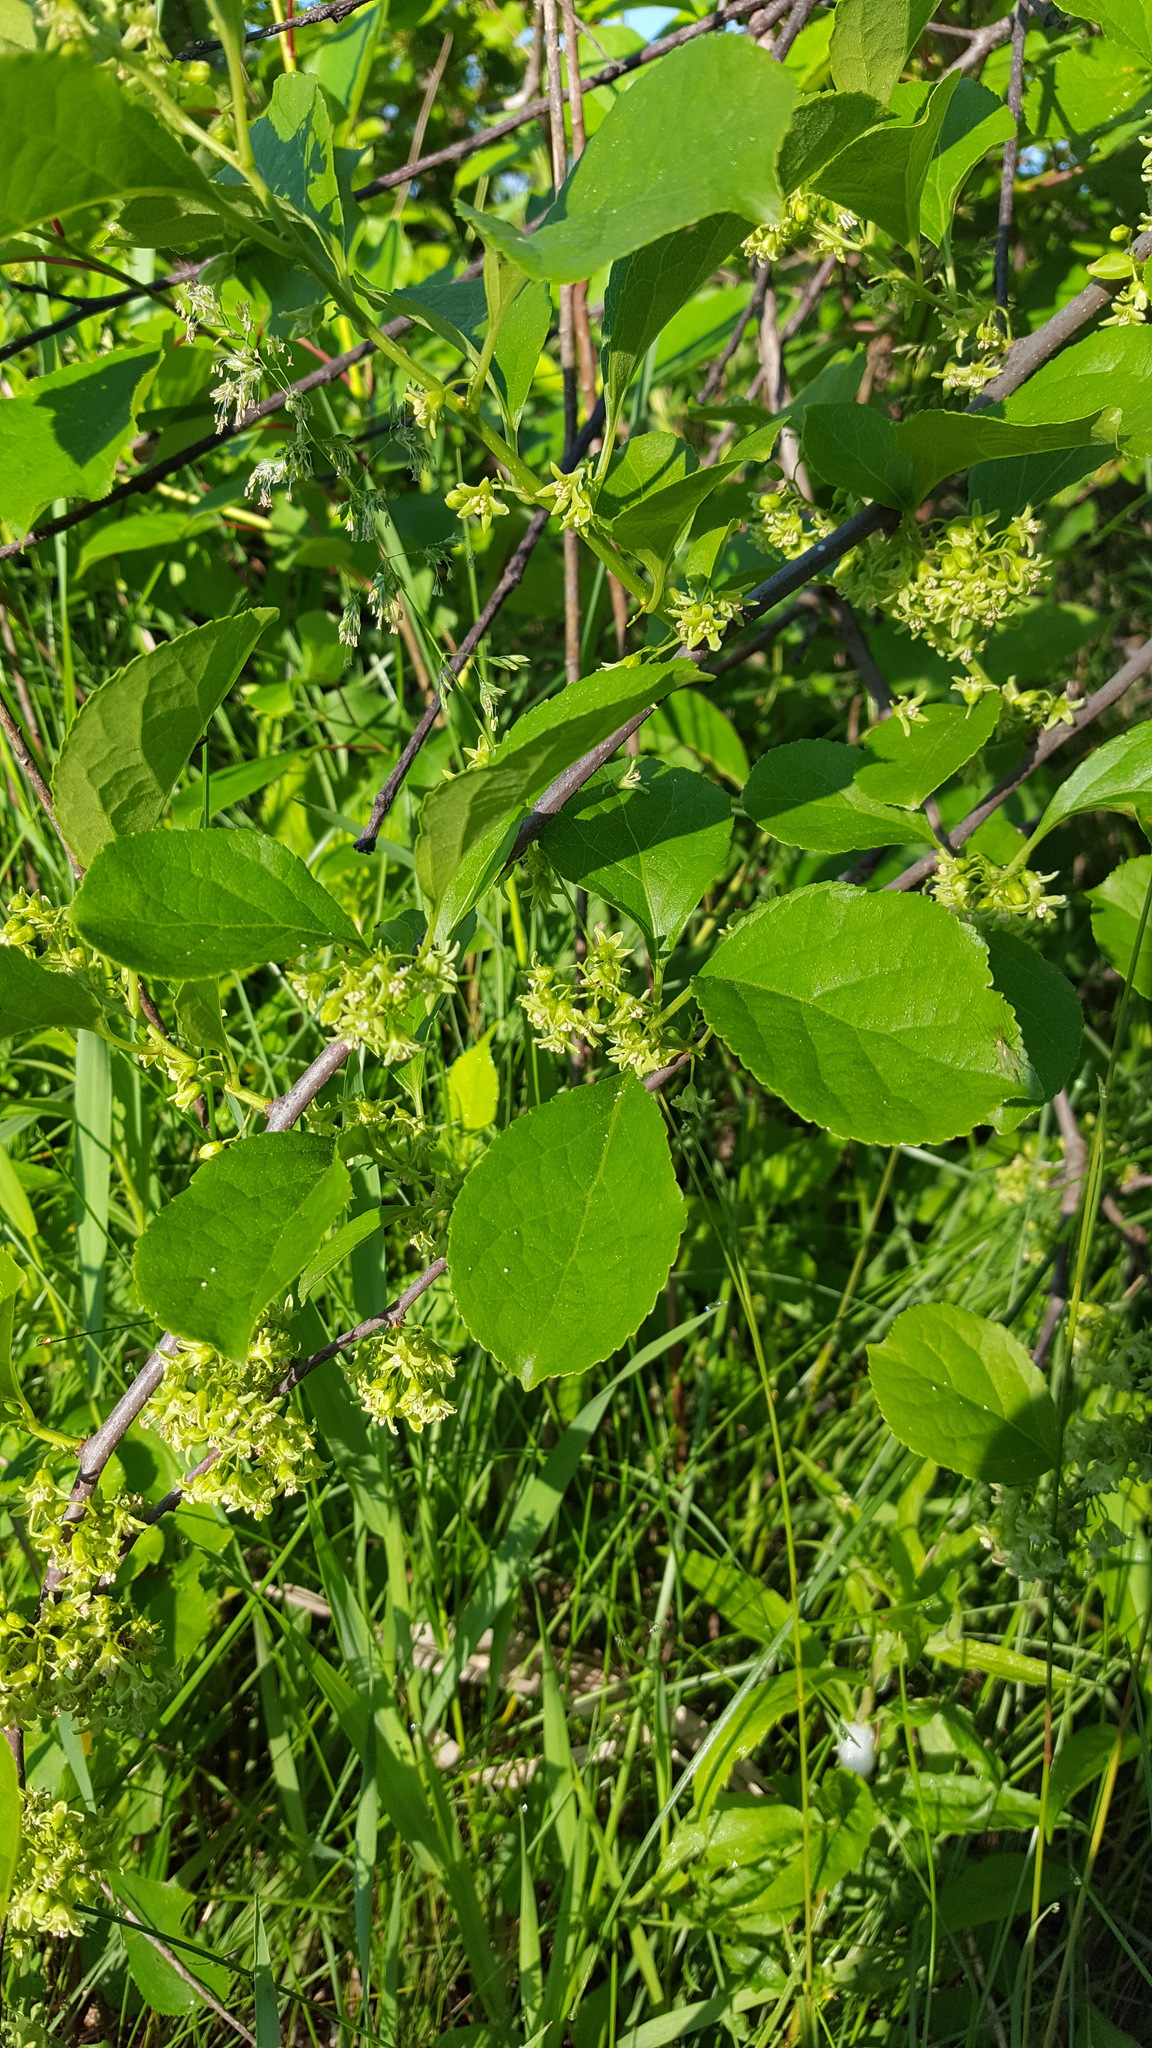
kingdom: Plantae
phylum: Tracheophyta
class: Magnoliopsida
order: Celastrales
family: Celastraceae
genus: Celastrus
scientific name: Celastrus orbiculatus
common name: Oriental bittersweet
